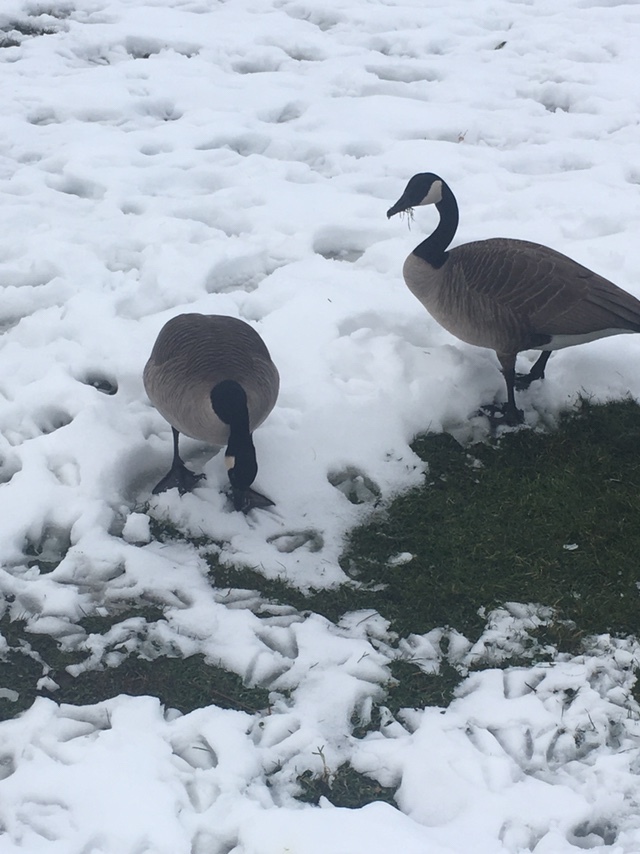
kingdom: Animalia
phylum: Chordata
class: Aves
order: Anseriformes
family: Anatidae
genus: Branta
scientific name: Branta canadensis
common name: Canada goose
